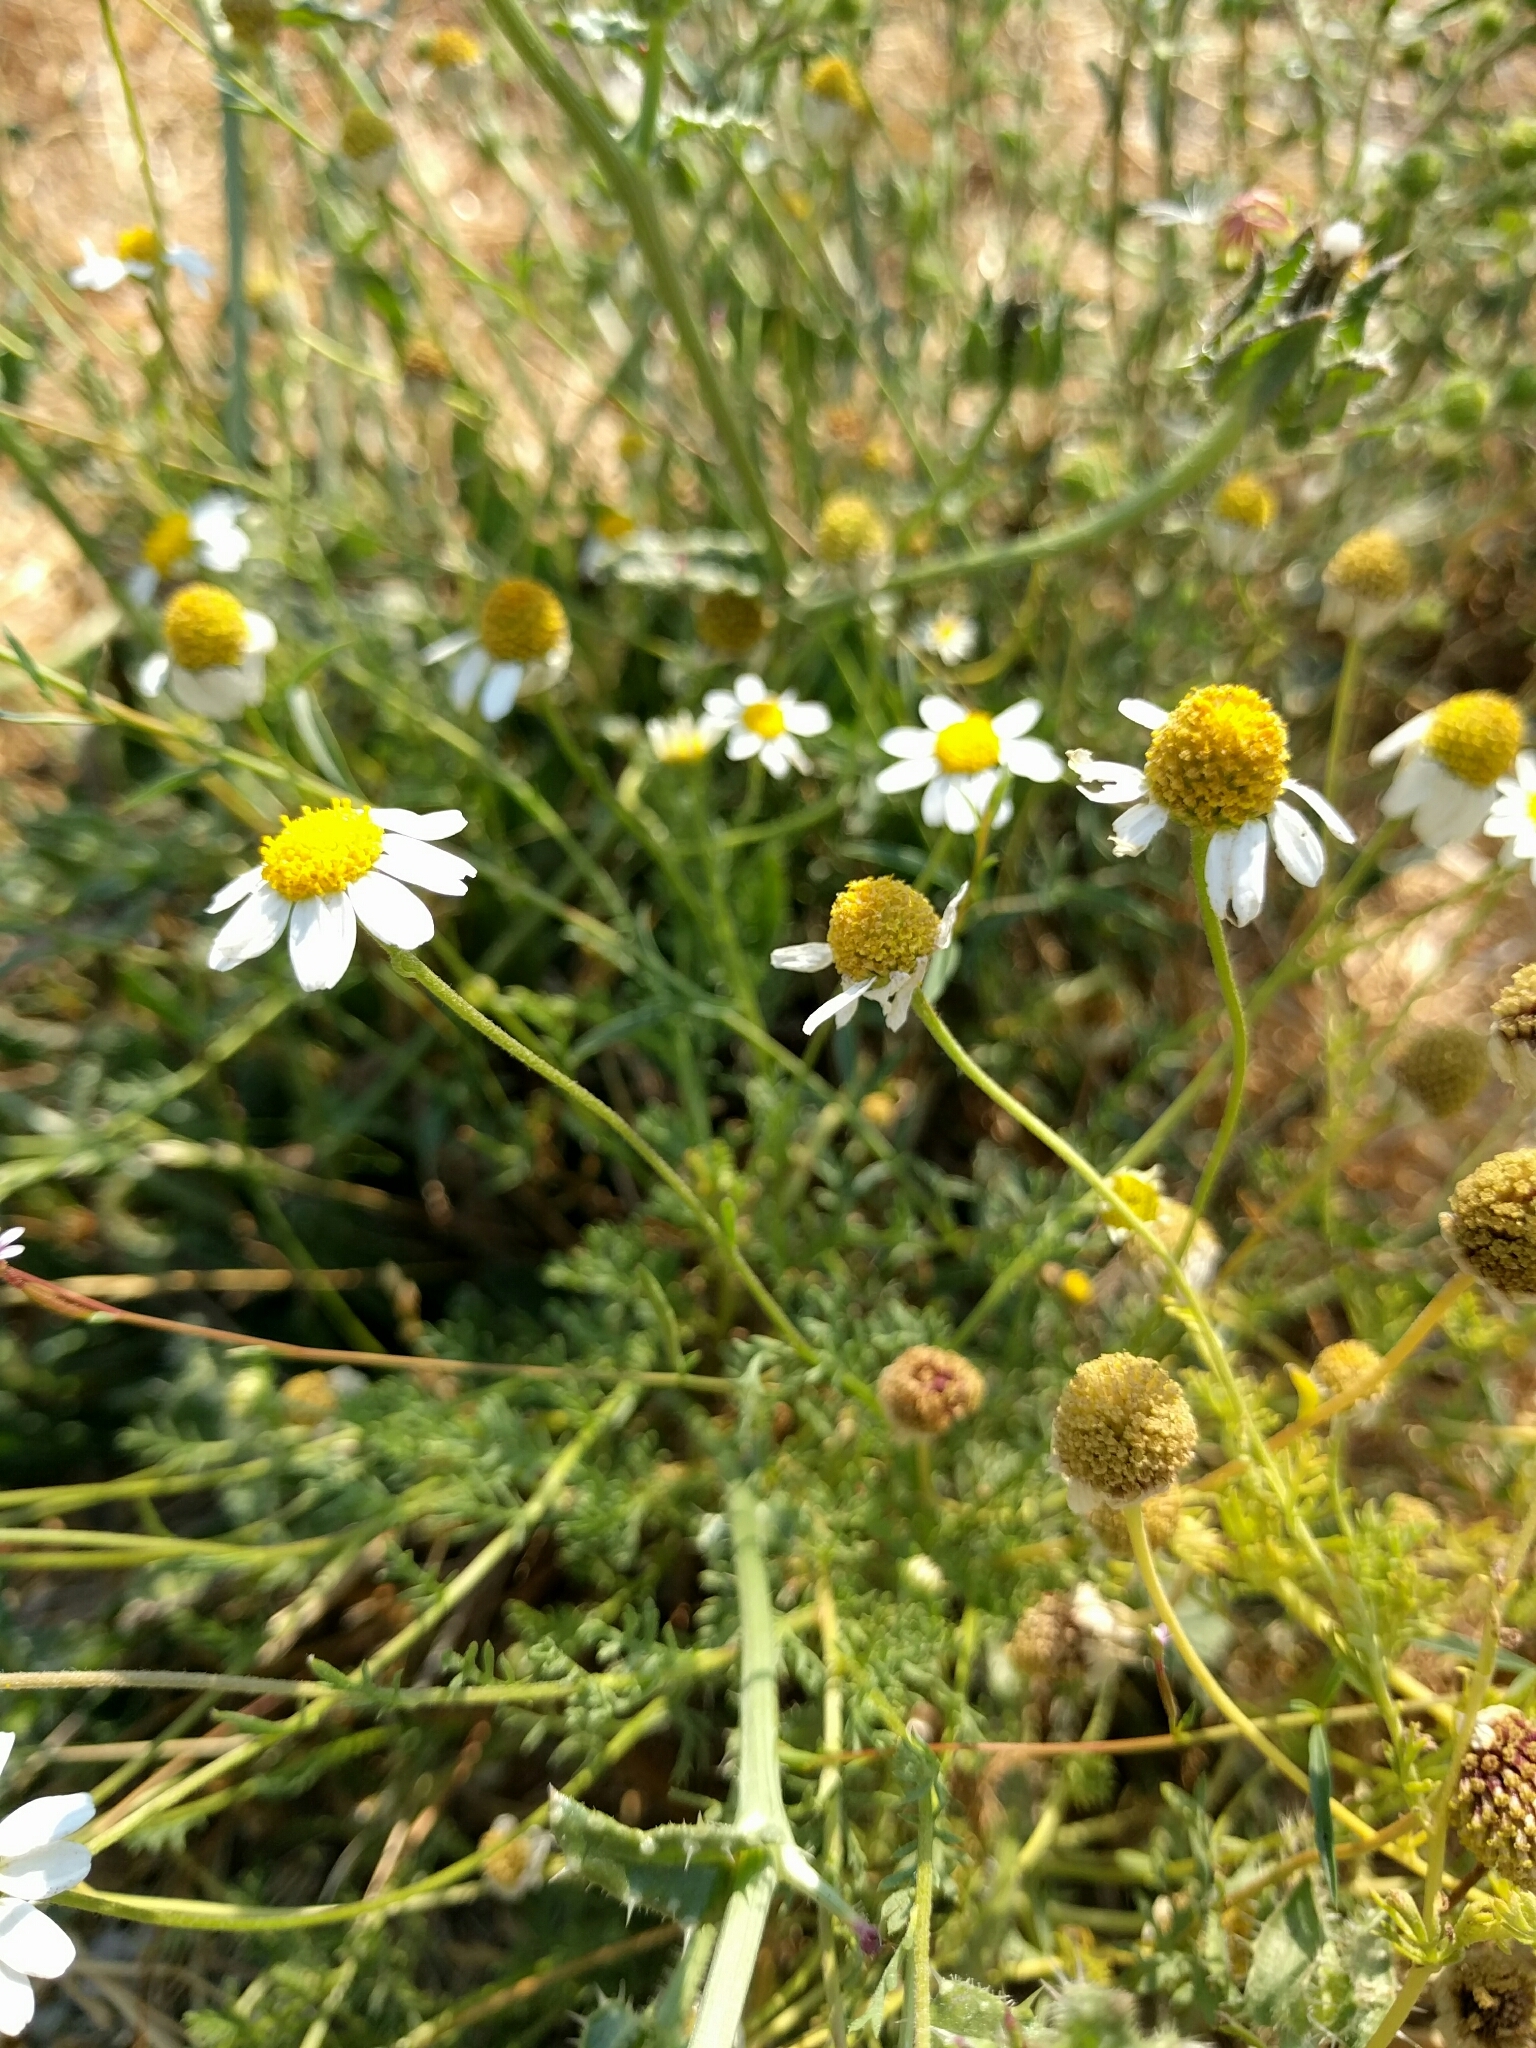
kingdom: Plantae
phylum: Tracheophyta
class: Magnoliopsida
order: Asterales
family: Asteraceae
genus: Anthemis
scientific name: Anthemis cotula
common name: Stinking chamomile
